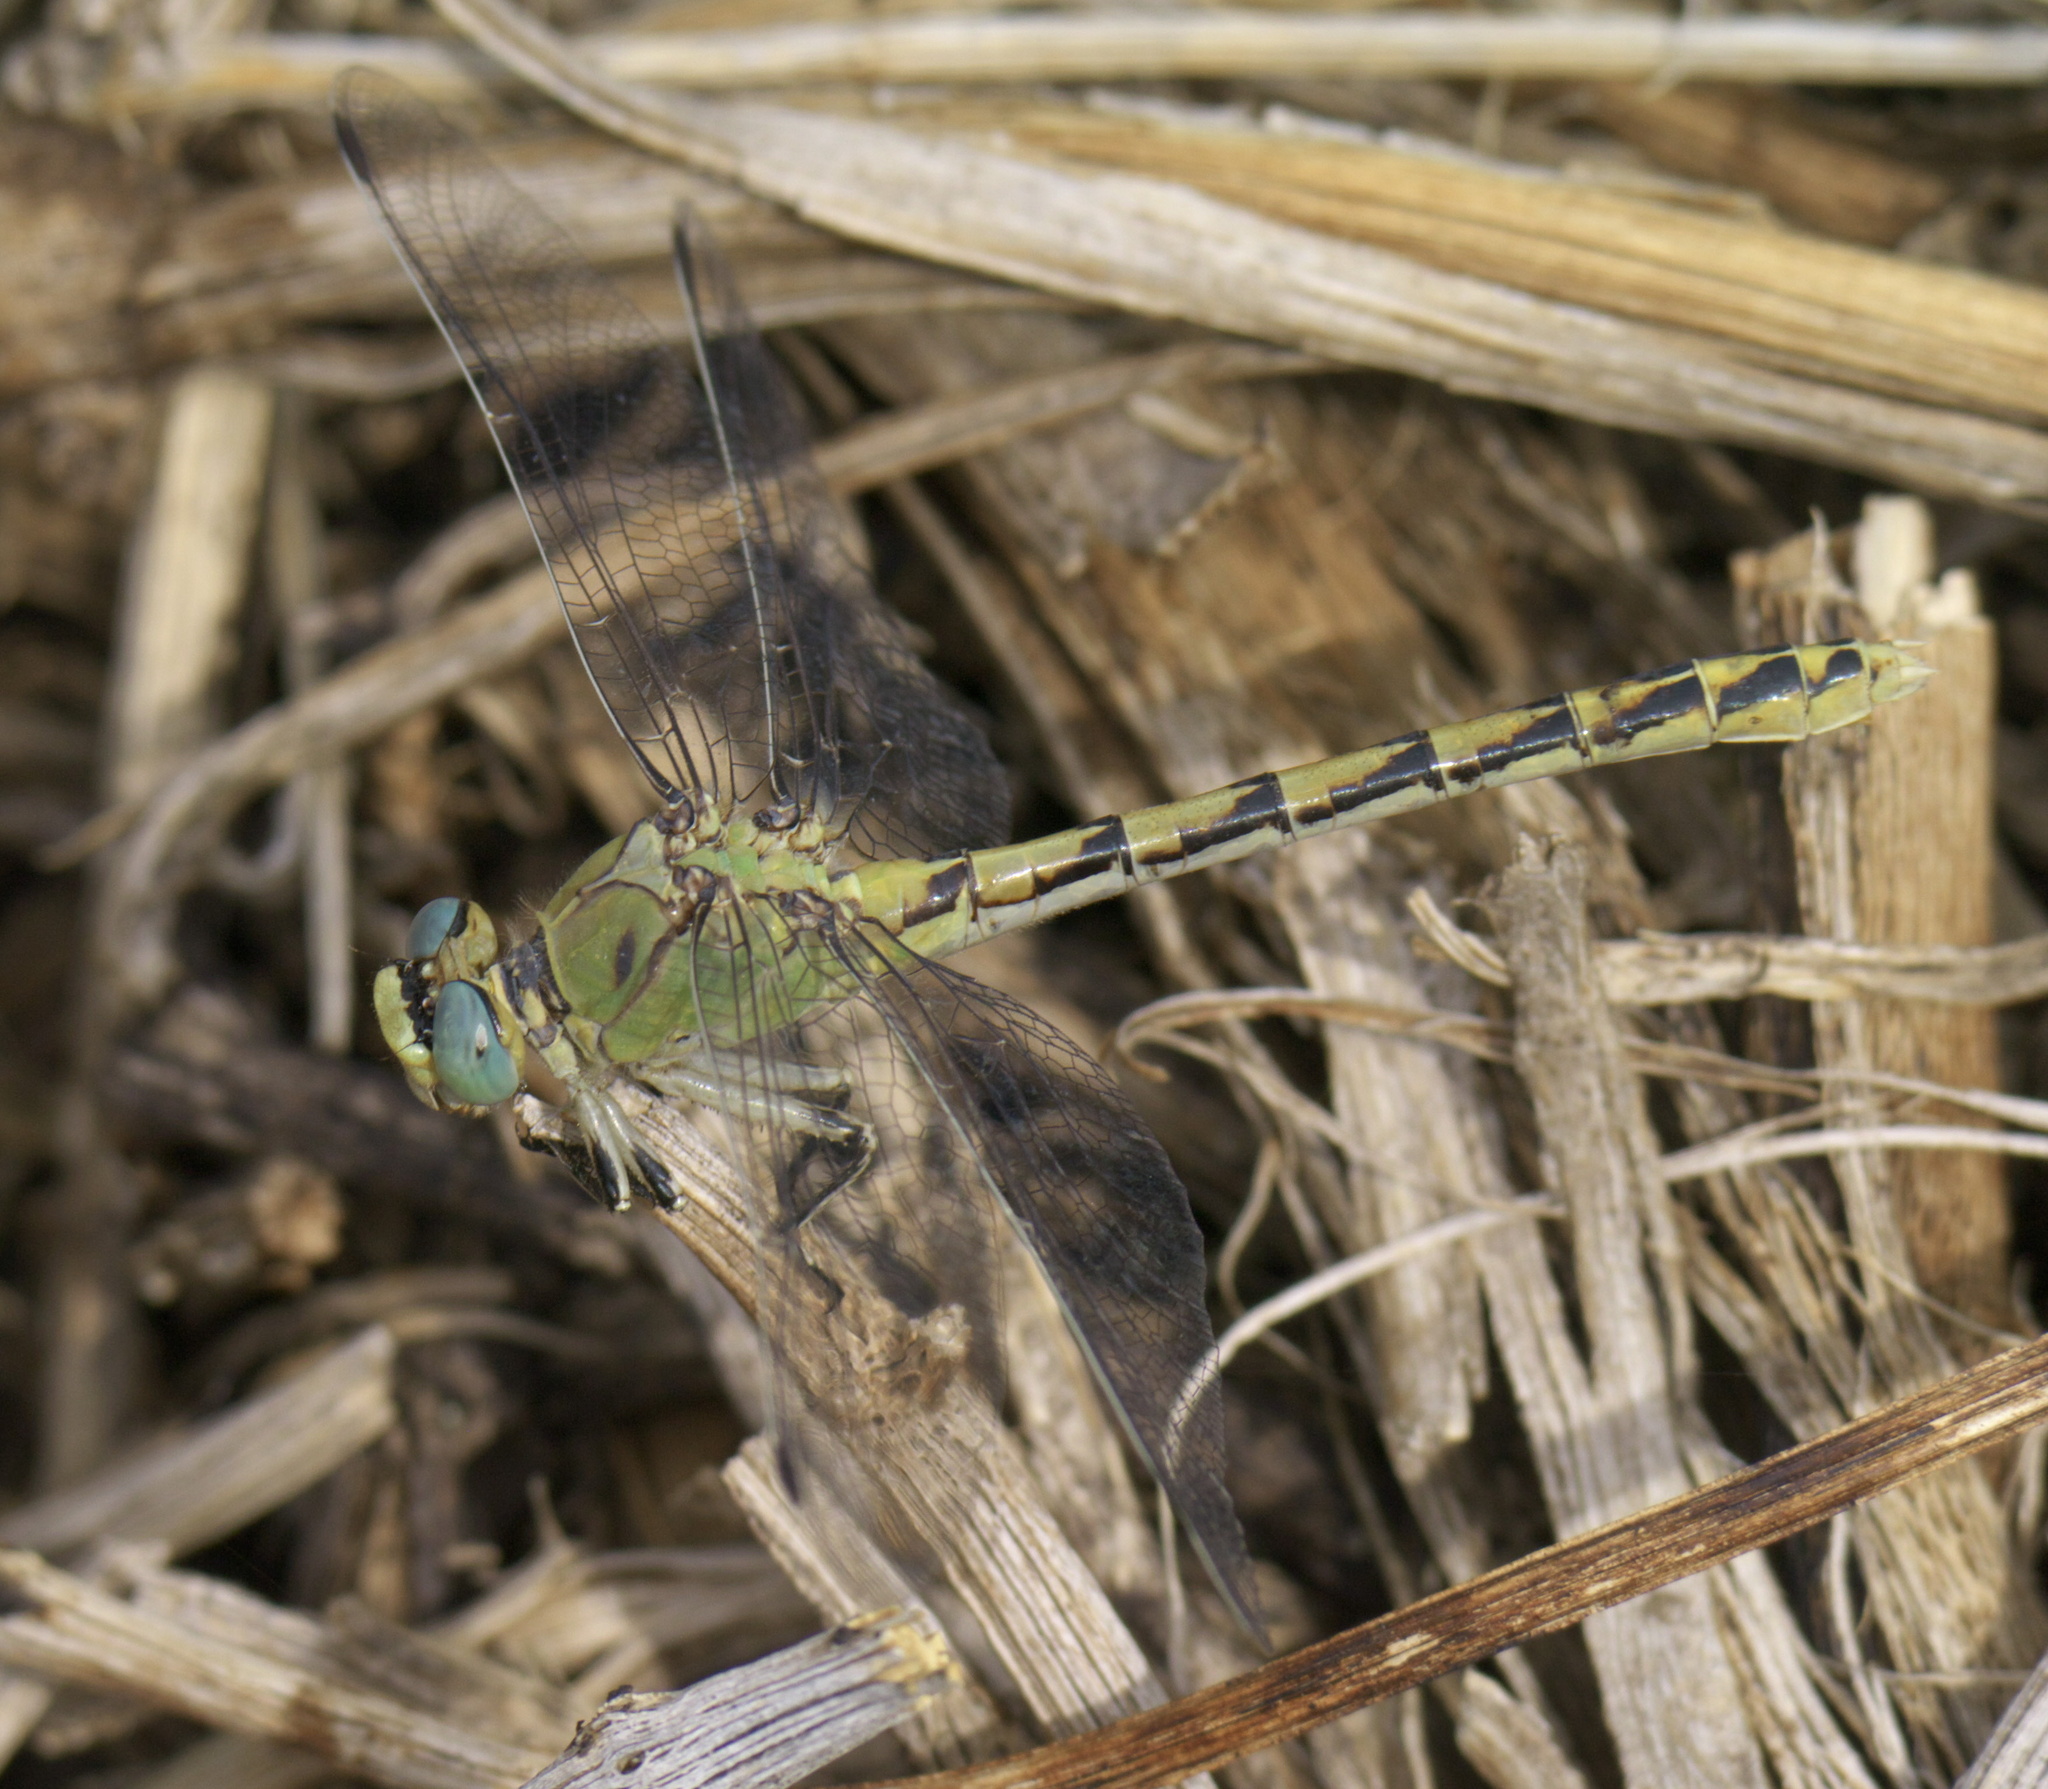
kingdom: Animalia
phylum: Arthropoda
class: Insecta
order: Odonata
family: Gomphidae
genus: Ophiogomphus
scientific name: Ophiogomphus severus
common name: Pale snaketail
